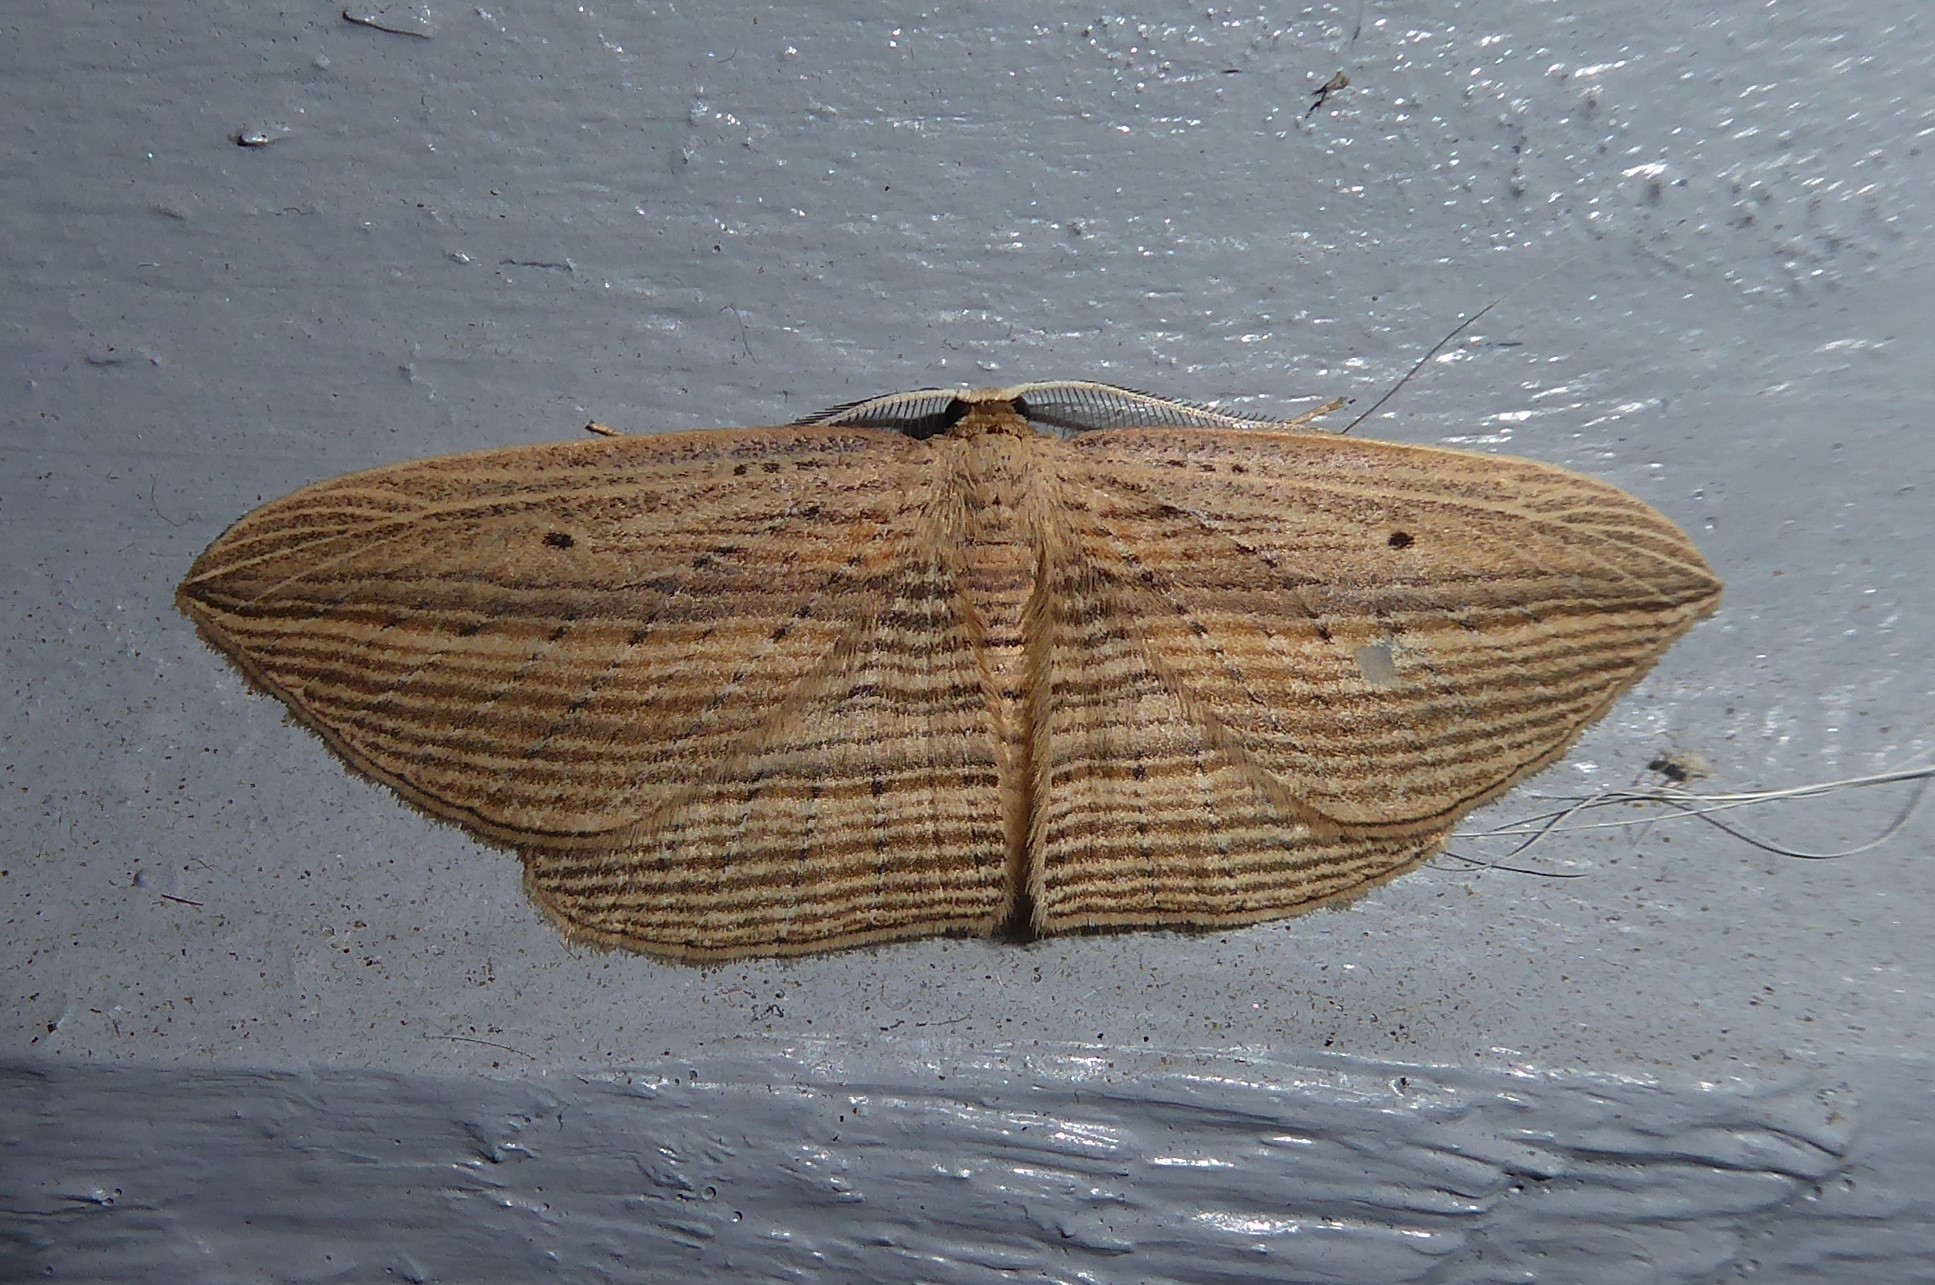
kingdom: Animalia
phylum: Arthropoda
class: Insecta
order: Lepidoptera
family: Geometridae
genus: Epiphryne
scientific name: Epiphryne verriculata
